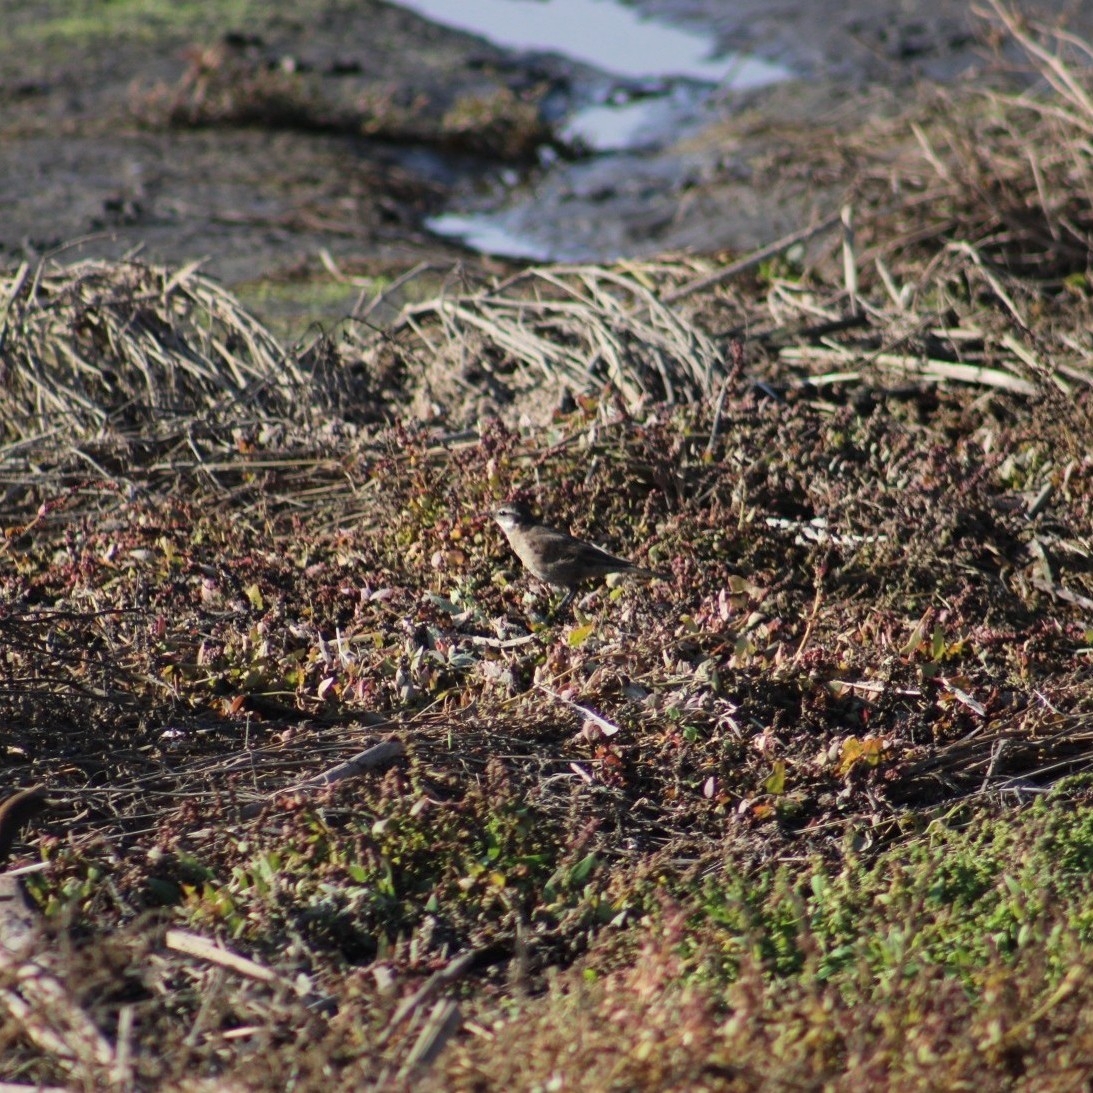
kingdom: Animalia
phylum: Chordata
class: Aves
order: Passeriformes
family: Furnariidae
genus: Cinclodes
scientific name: Cinclodes fuscus
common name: Buff-winged cinclodes
